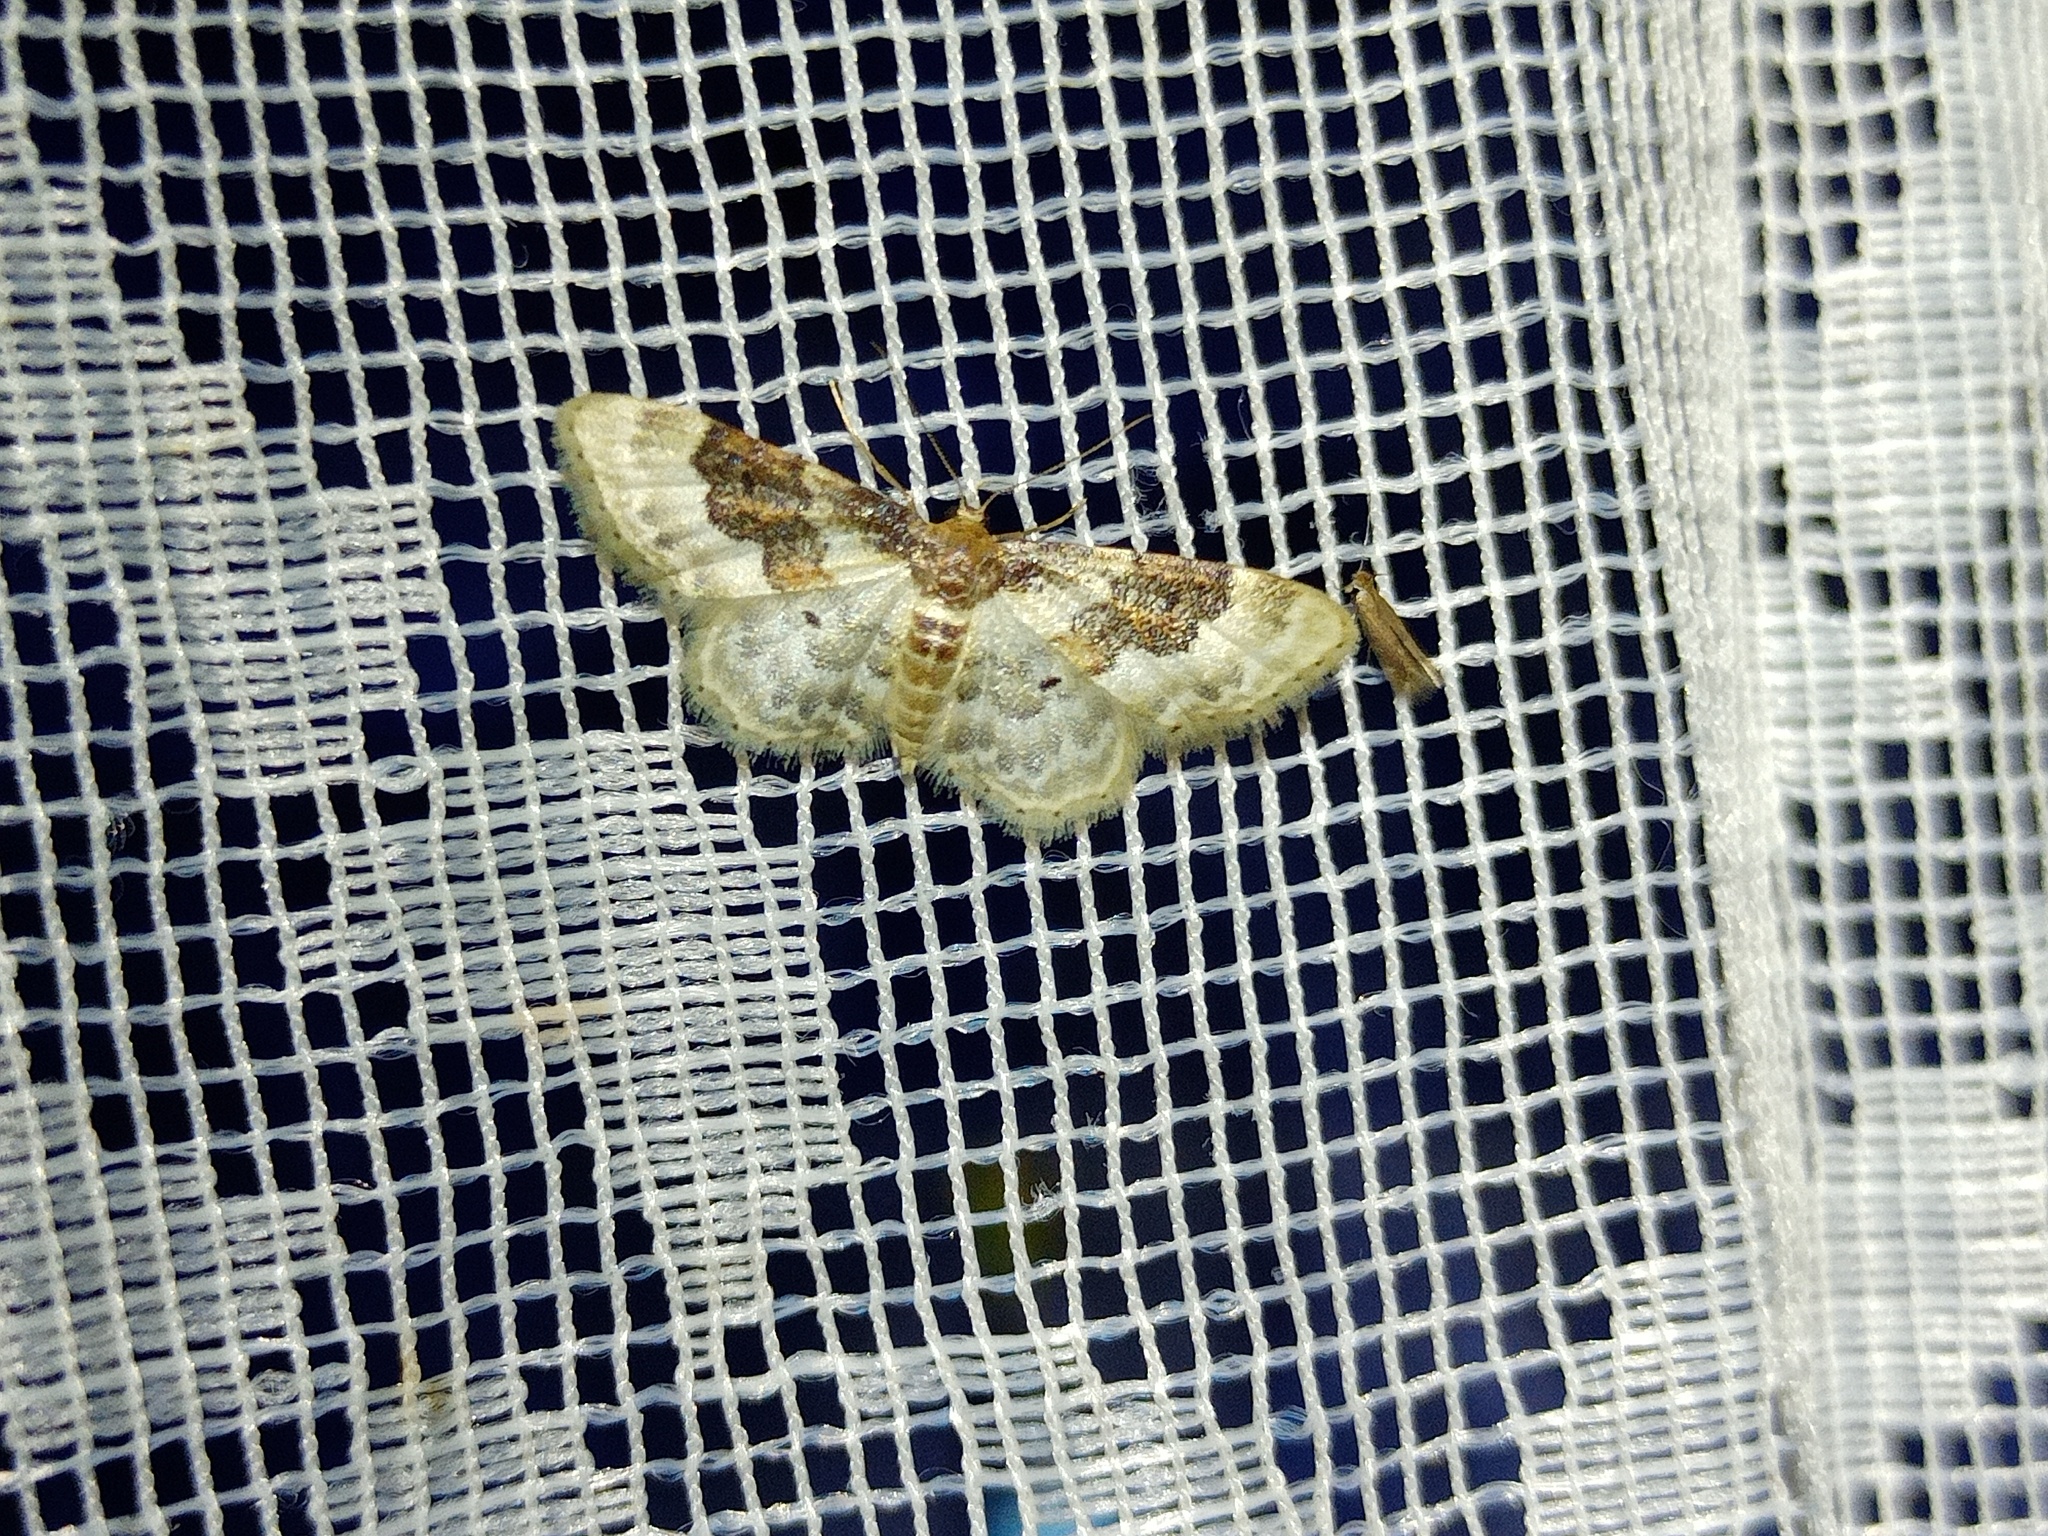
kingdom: Animalia
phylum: Arthropoda
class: Insecta
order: Lepidoptera
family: Geometridae
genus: Idaea
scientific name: Idaea rusticata
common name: Least carpet
